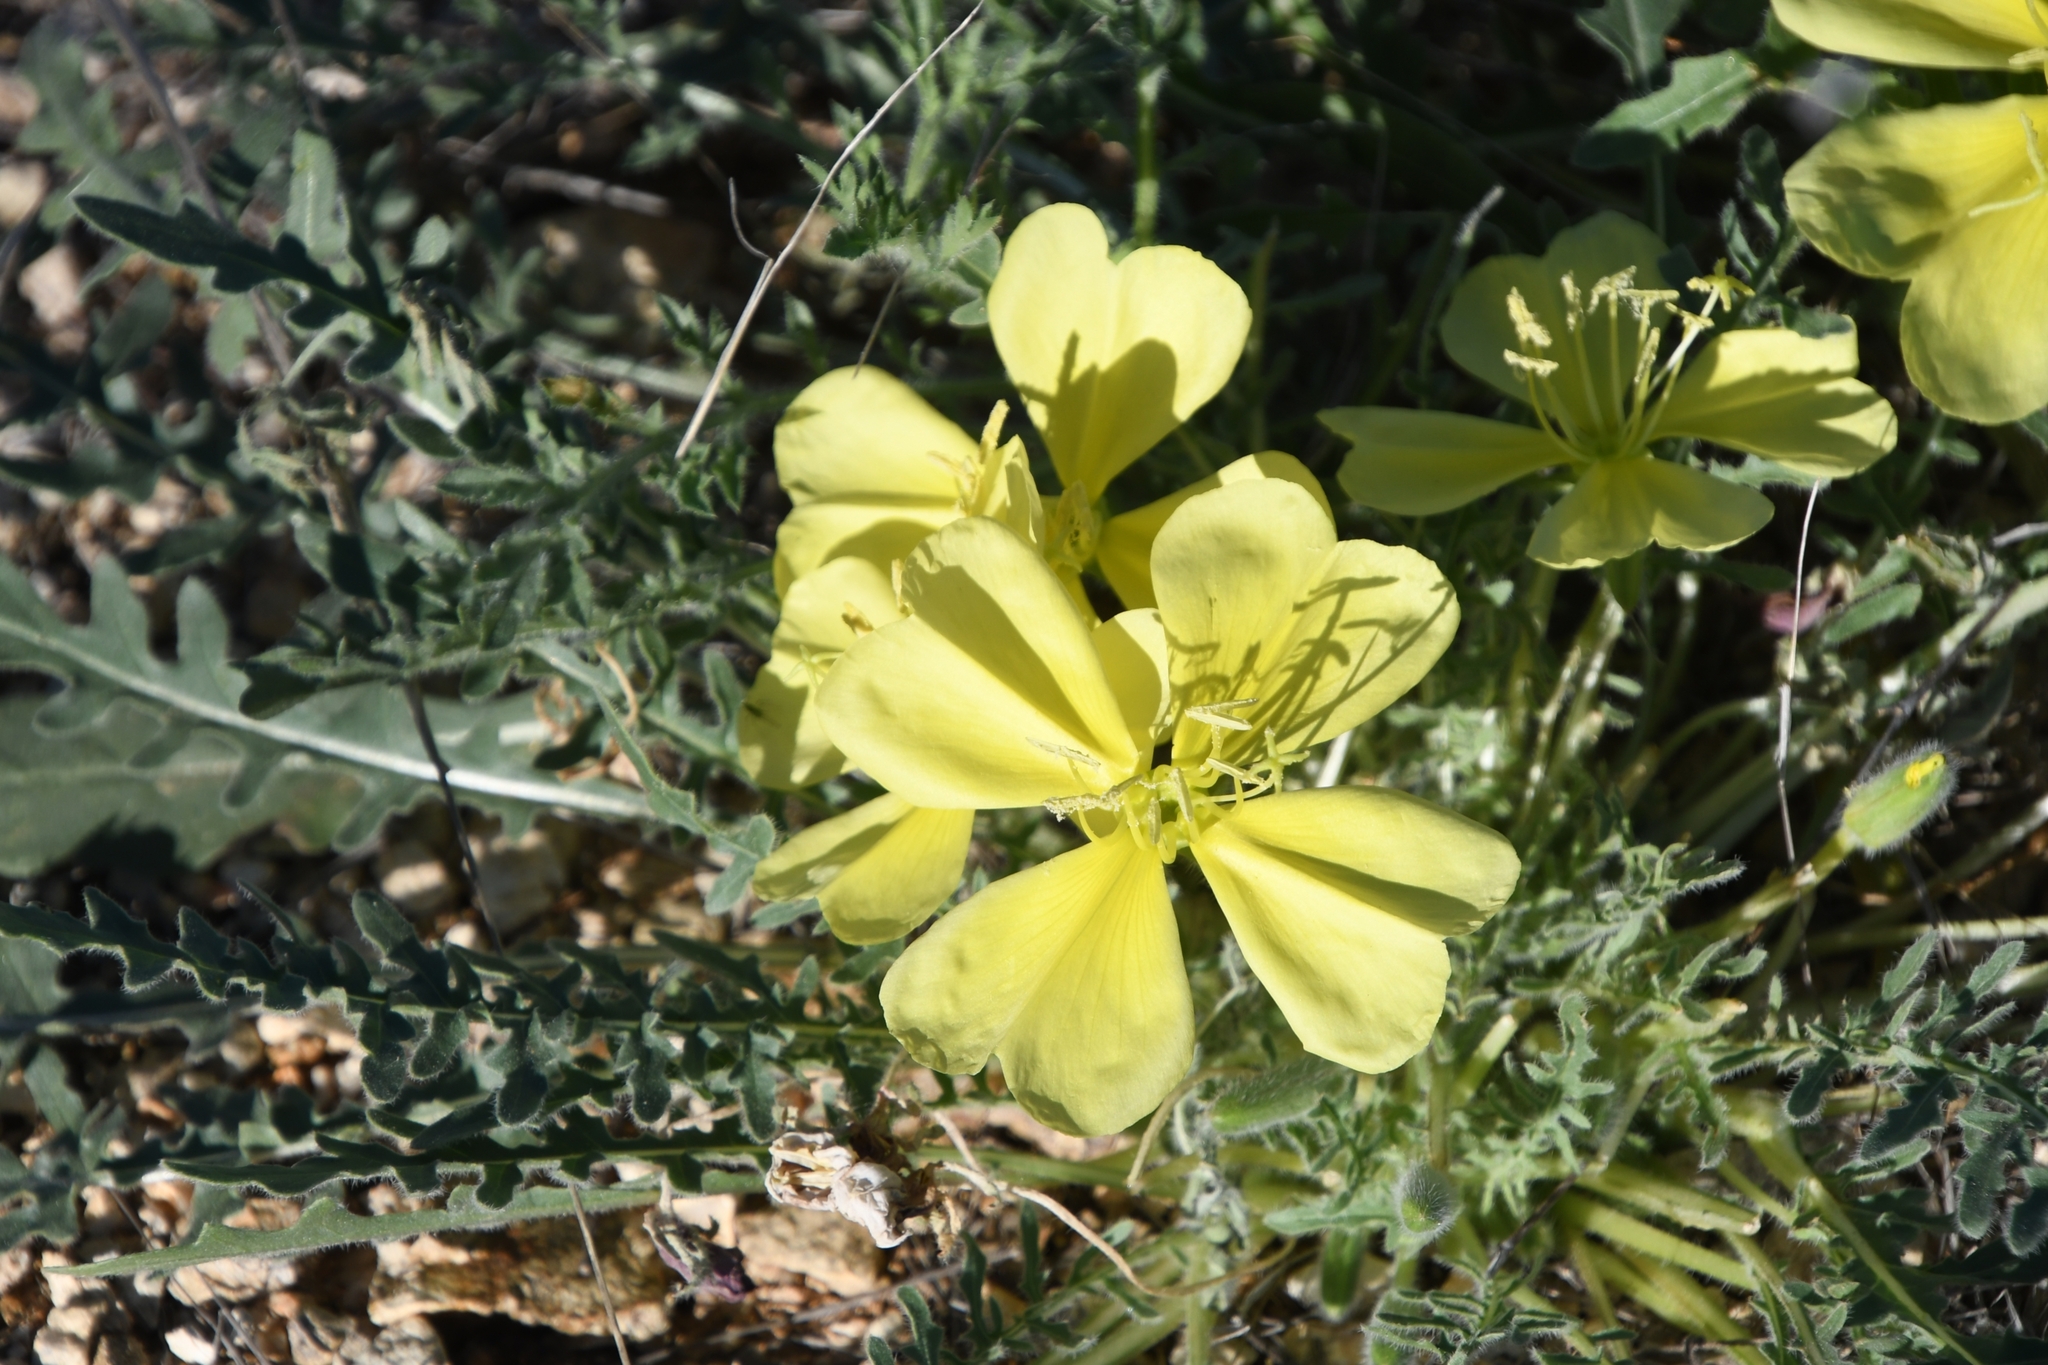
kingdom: Plantae
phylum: Tracheophyta
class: Magnoliopsida
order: Myrtales
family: Onagraceae
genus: Oenothera
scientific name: Oenothera primiveris
